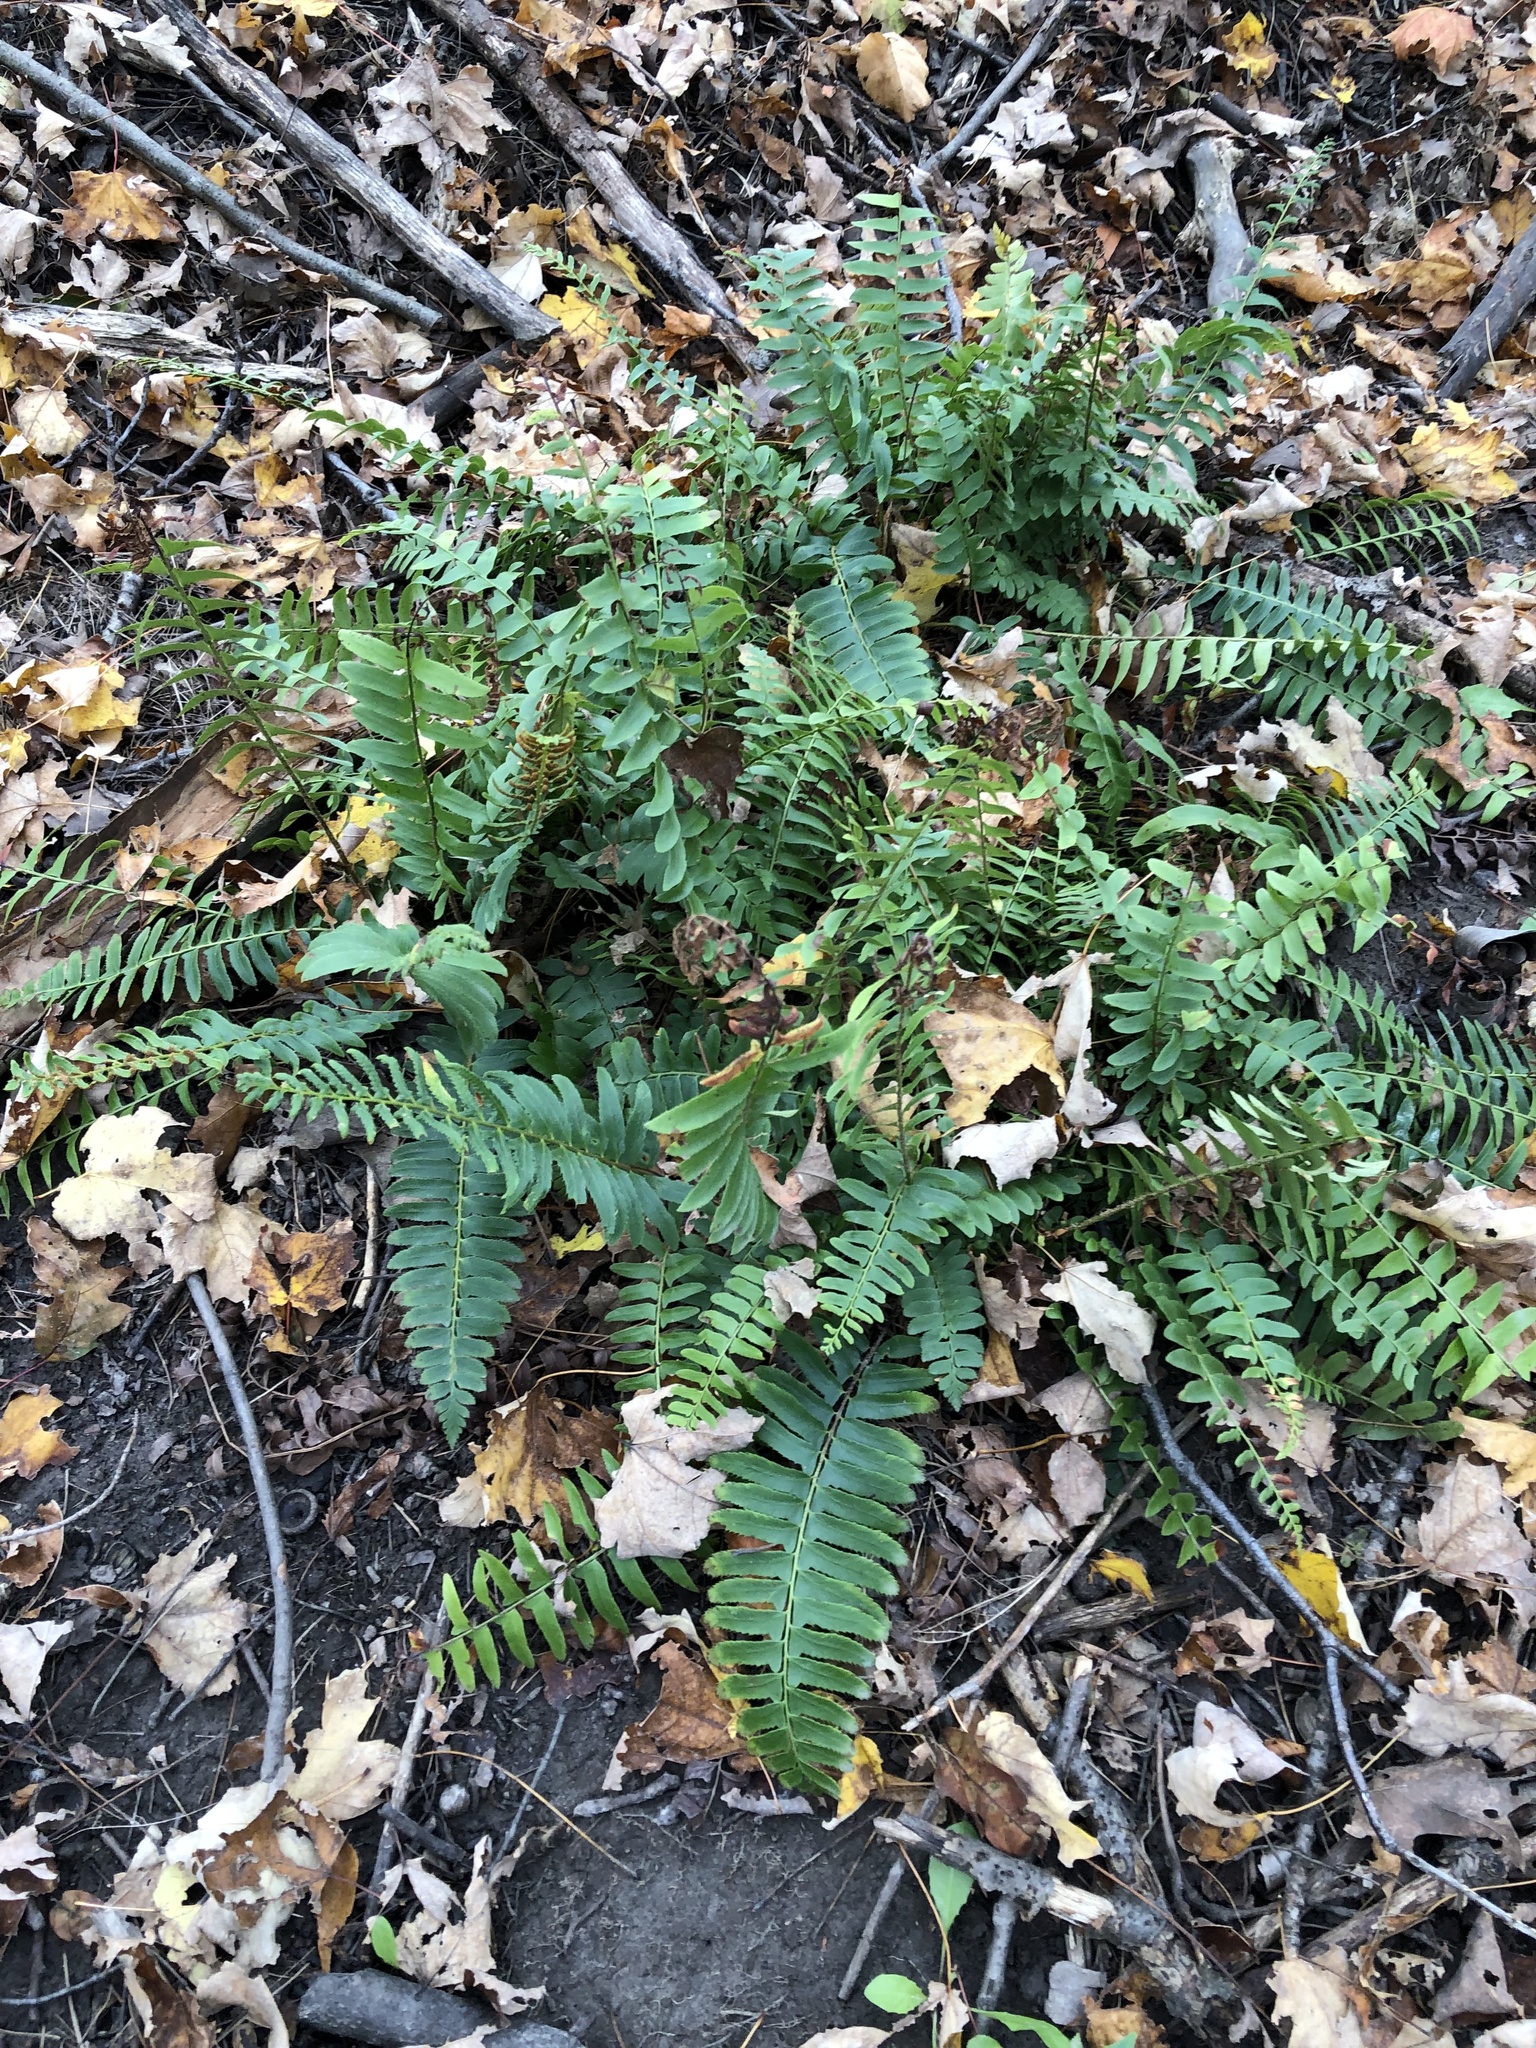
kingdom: Plantae
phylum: Tracheophyta
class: Polypodiopsida
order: Polypodiales
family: Dryopteridaceae
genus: Polystichum
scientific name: Polystichum acrostichoides
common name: Christmas fern
